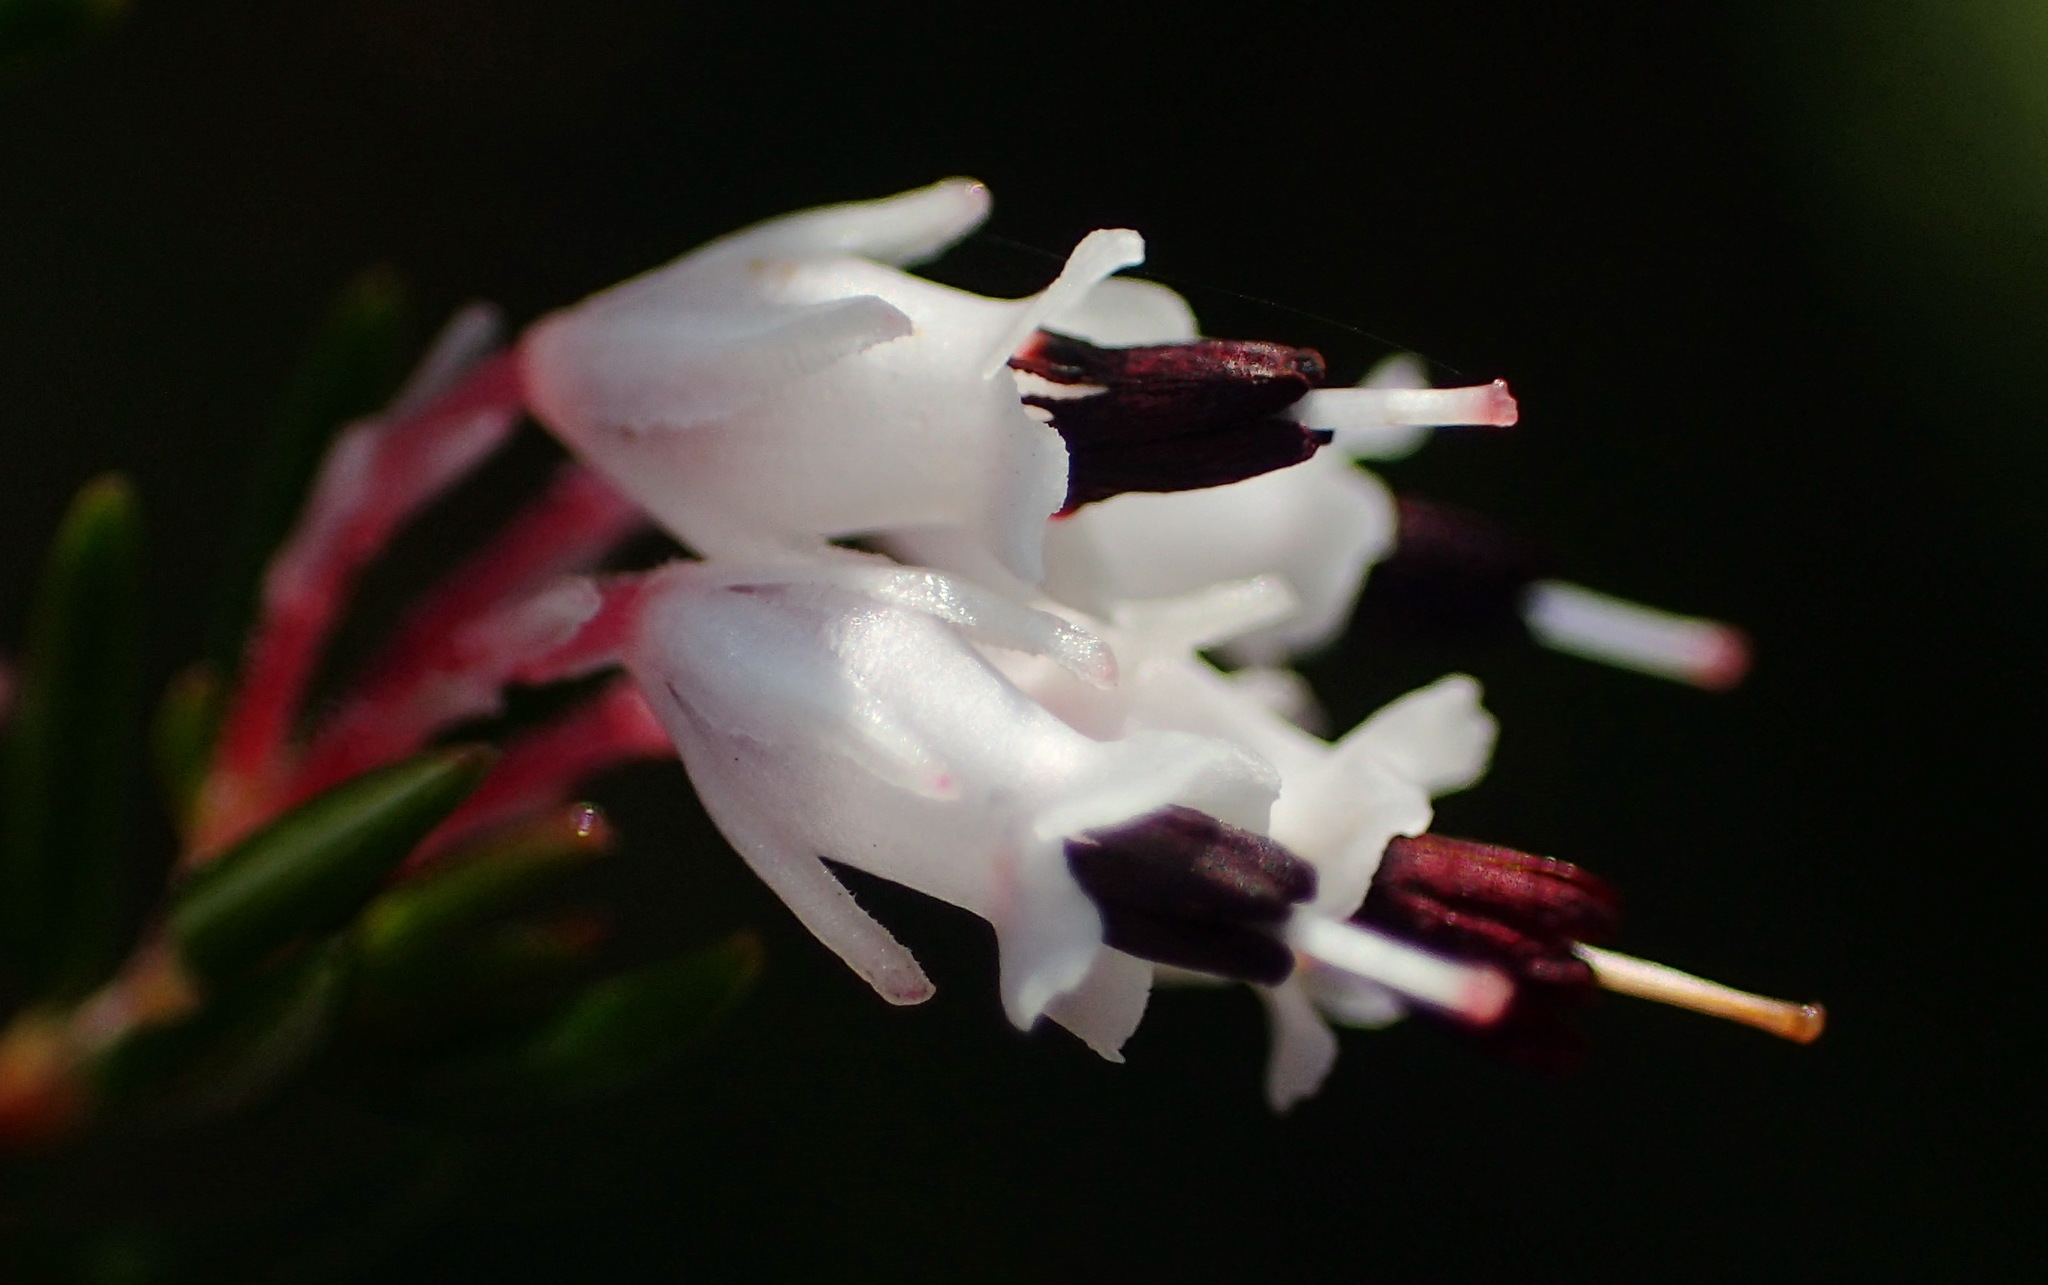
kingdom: Plantae
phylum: Tracheophyta
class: Magnoliopsida
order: Ericales
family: Ericaceae
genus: Erica
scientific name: Erica fuscescens
